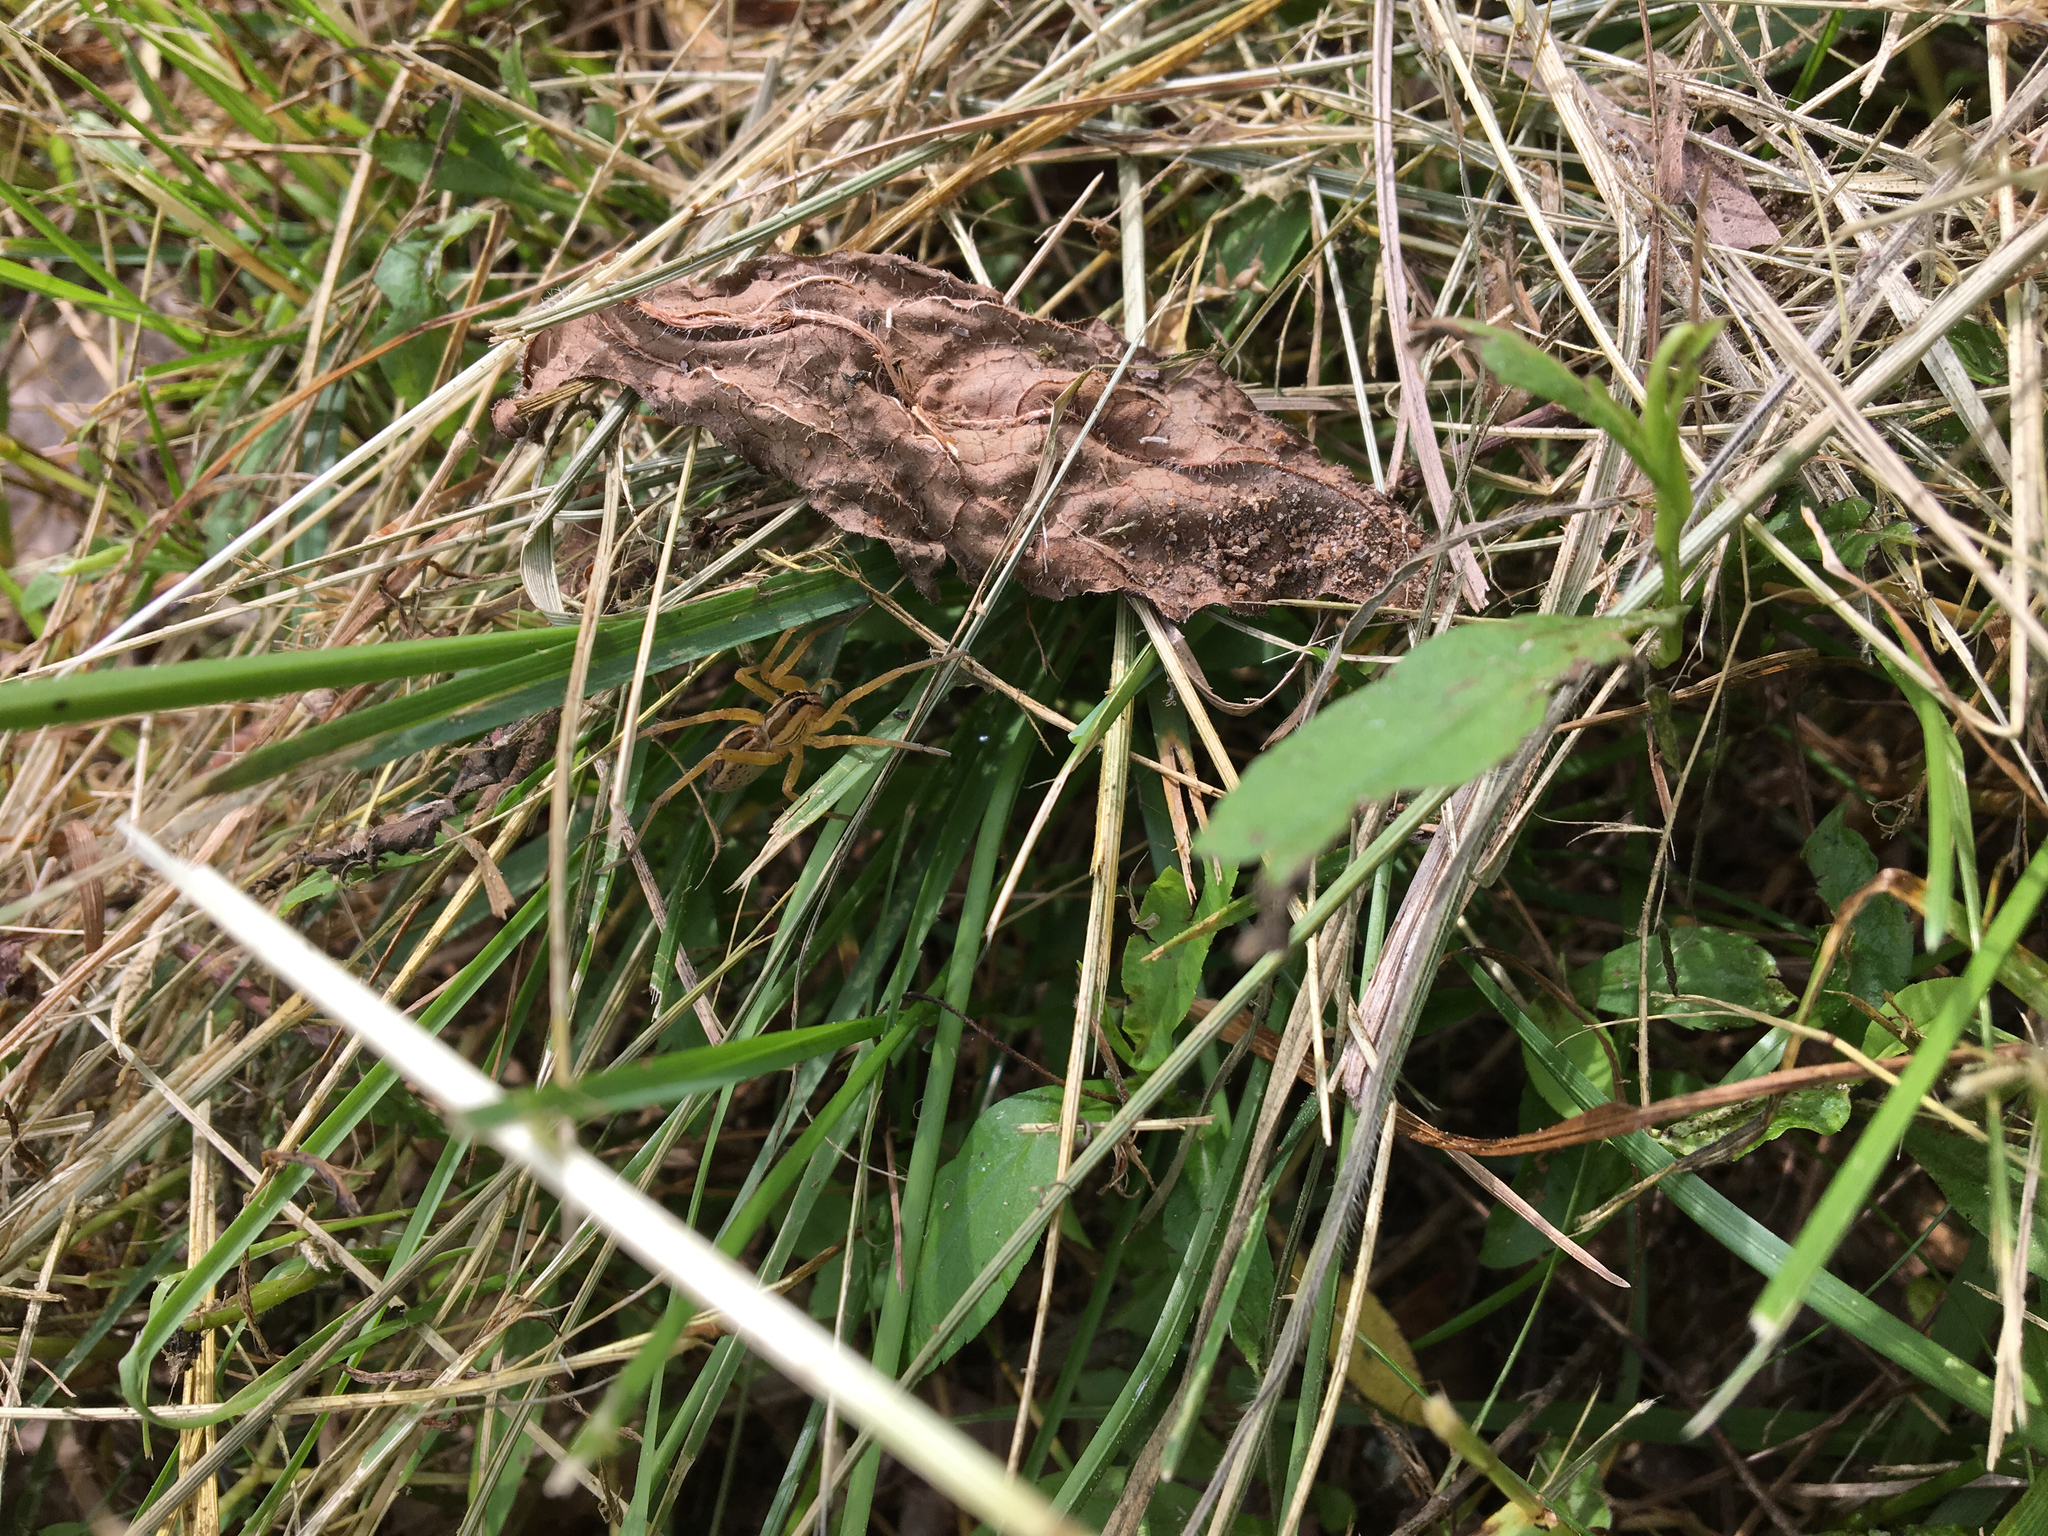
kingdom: Animalia
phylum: Arthropoda
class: Arachnida
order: Araneae
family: Lycosidae
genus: Rabidosa
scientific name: Rabidosa rabida
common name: Rabid wolf spider
